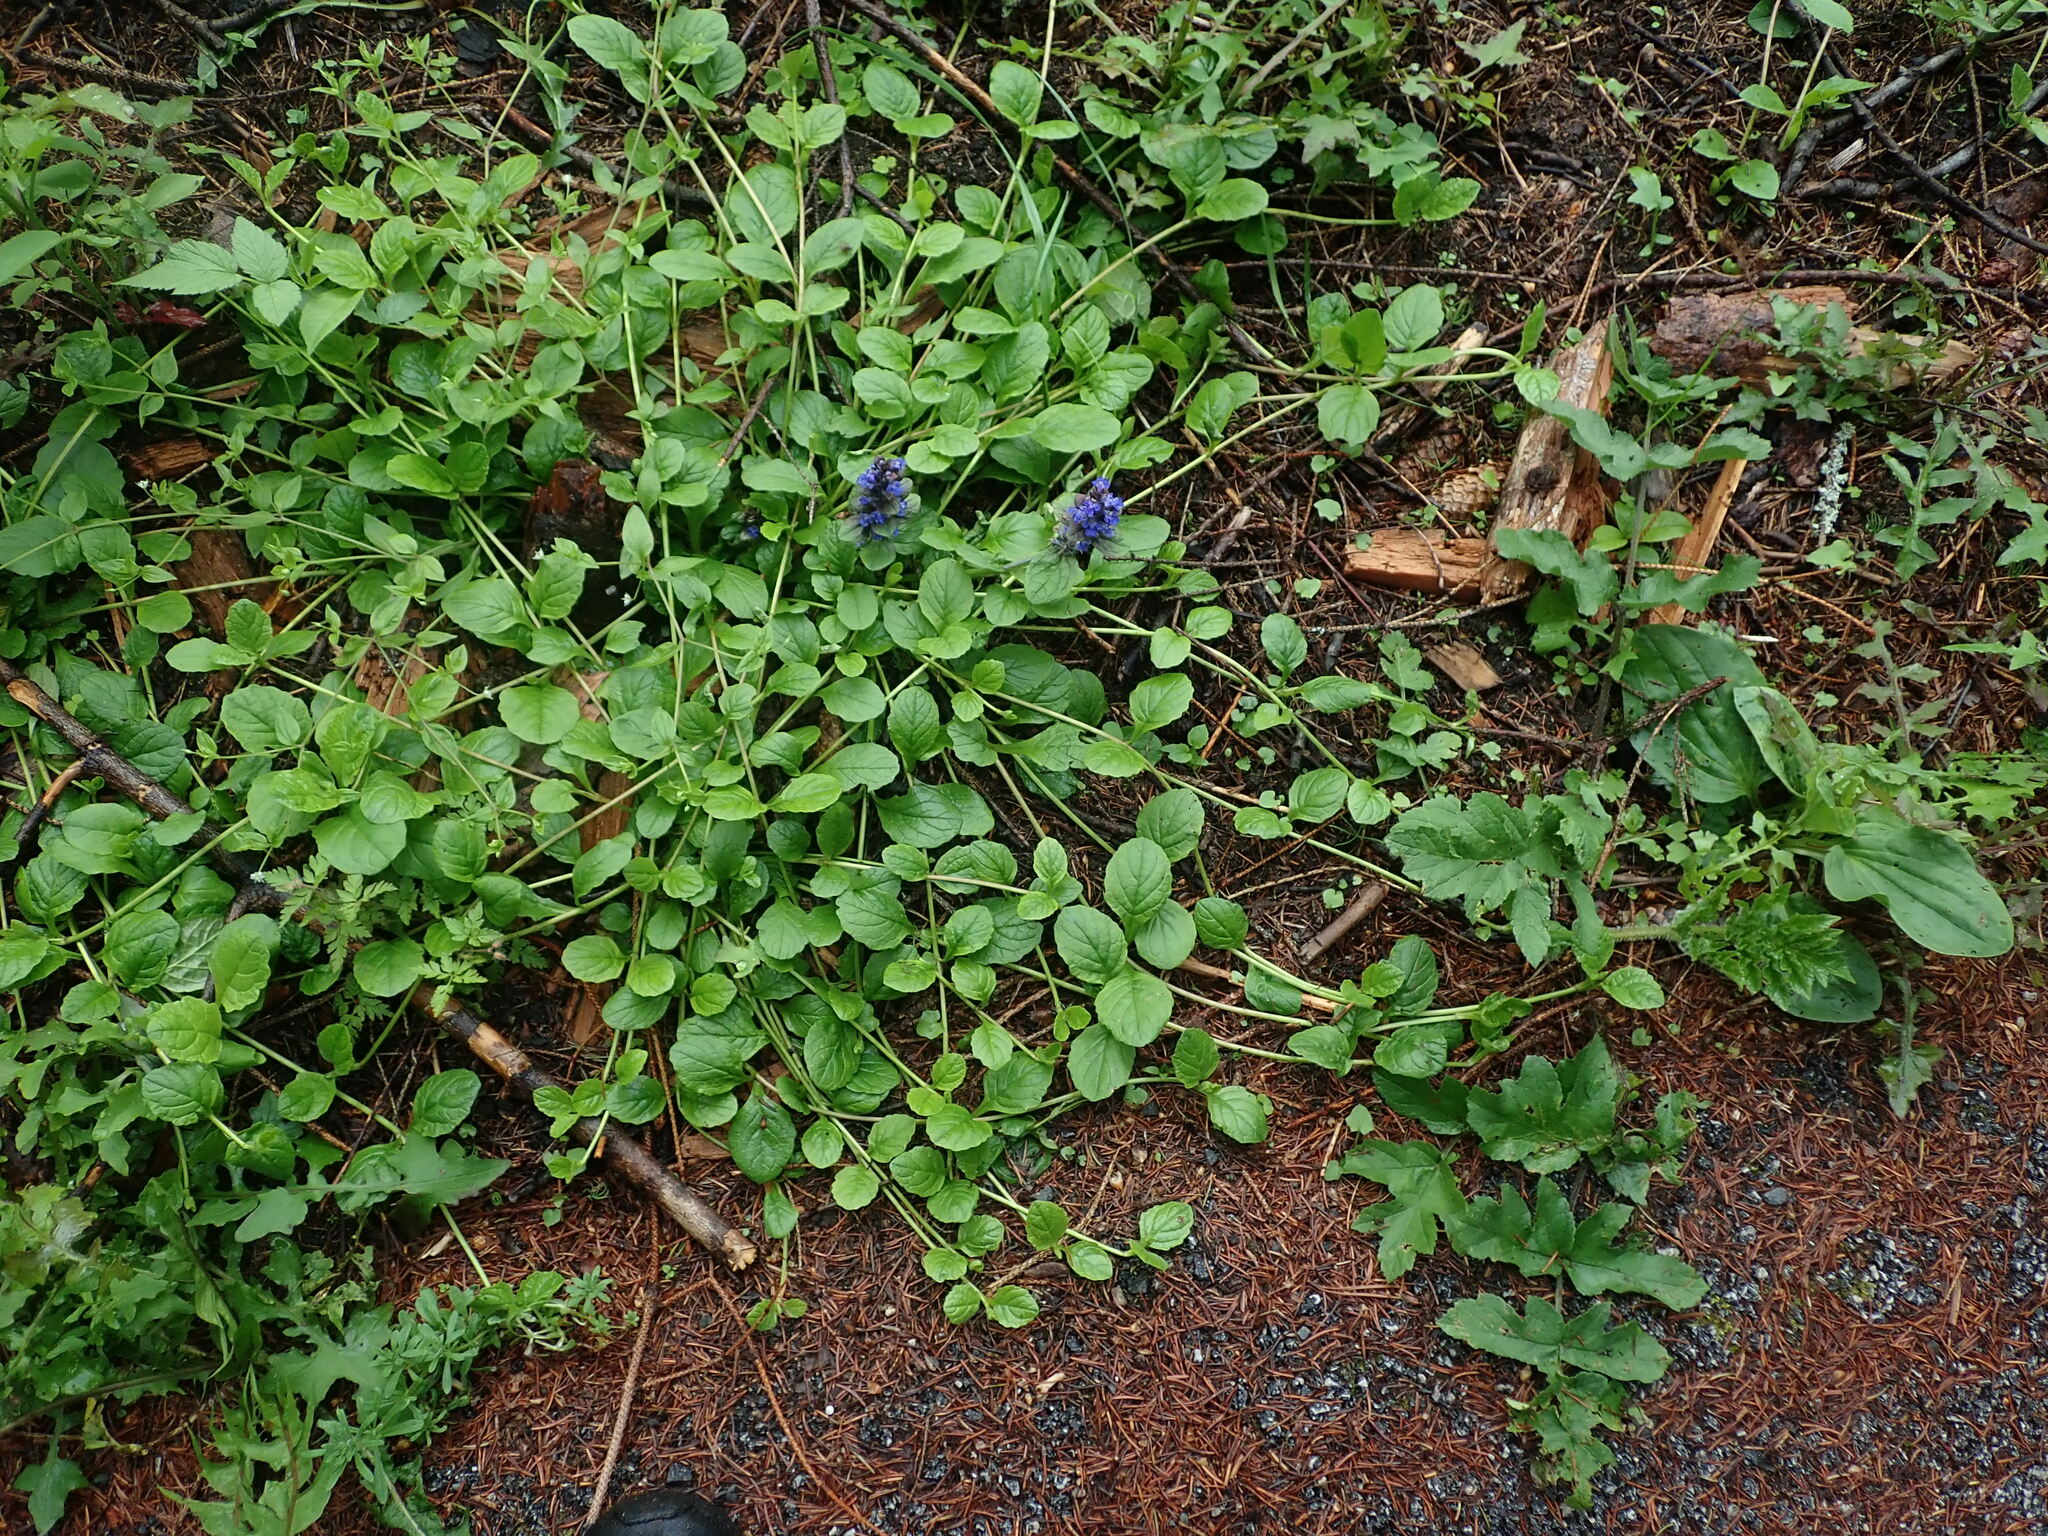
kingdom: Plantae
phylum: Tracheophyta
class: Magnoliopsida
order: Lamiales
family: Lamiaceae
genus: Ajuga
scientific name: Ajuga reptans
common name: Bugle
